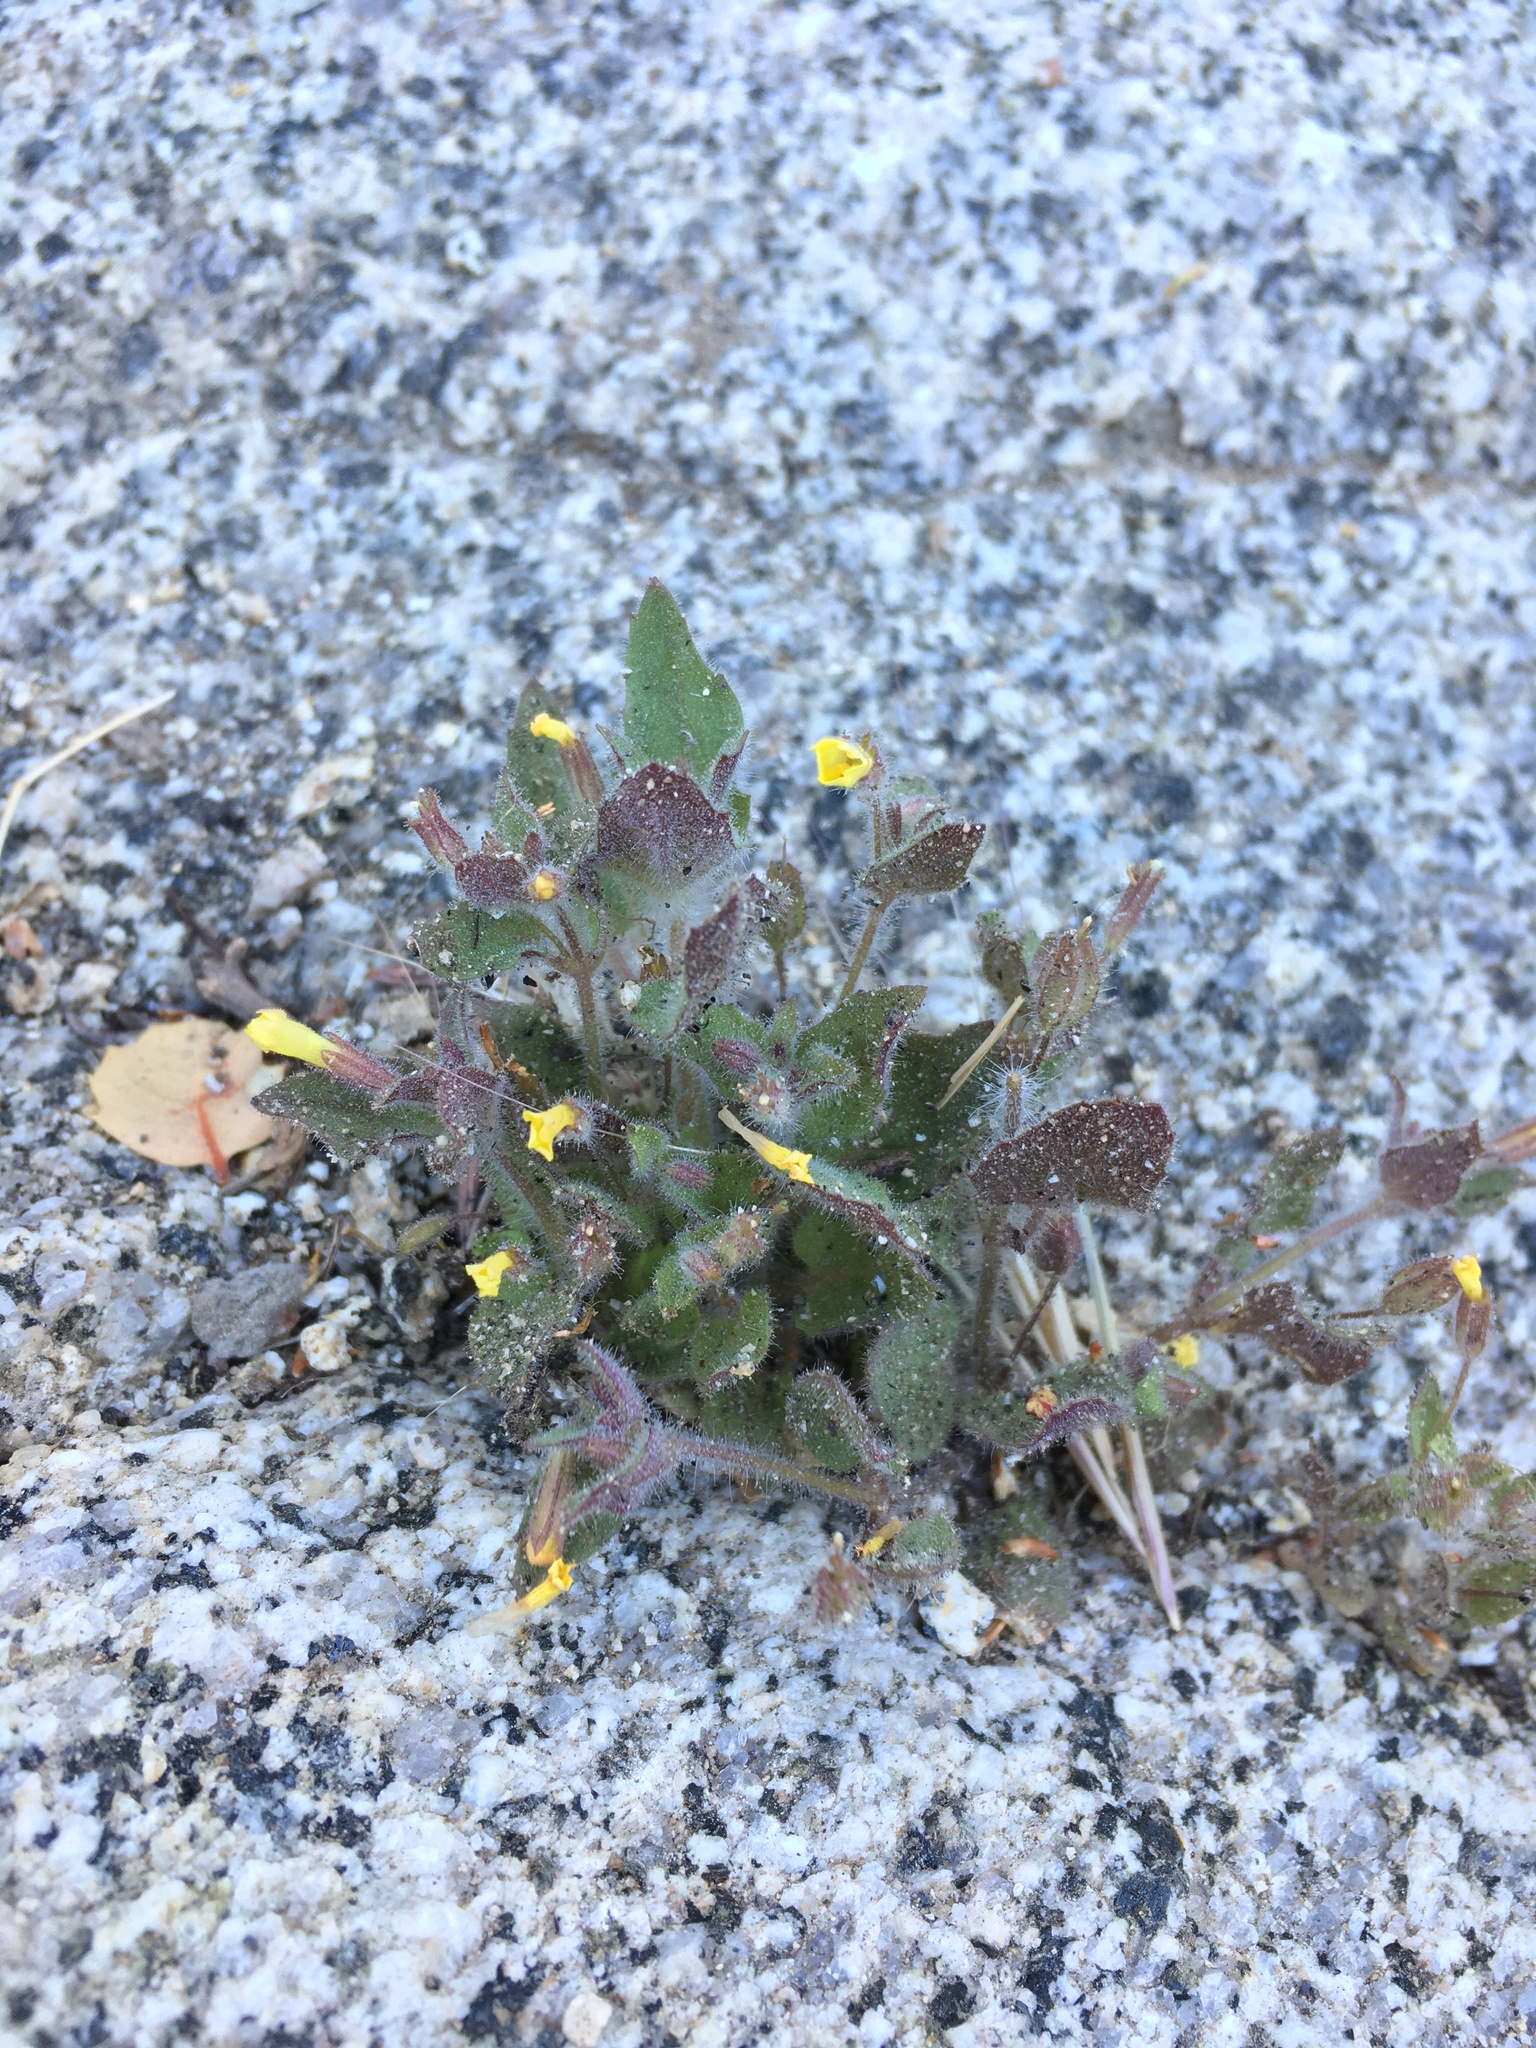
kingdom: Plantae
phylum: Tracheophyta
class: Magnoliopsida
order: Lamiales
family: Phrymaceae
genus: Erythranthe
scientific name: Erythranthe floribunda
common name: Floriferous monkeyflower
